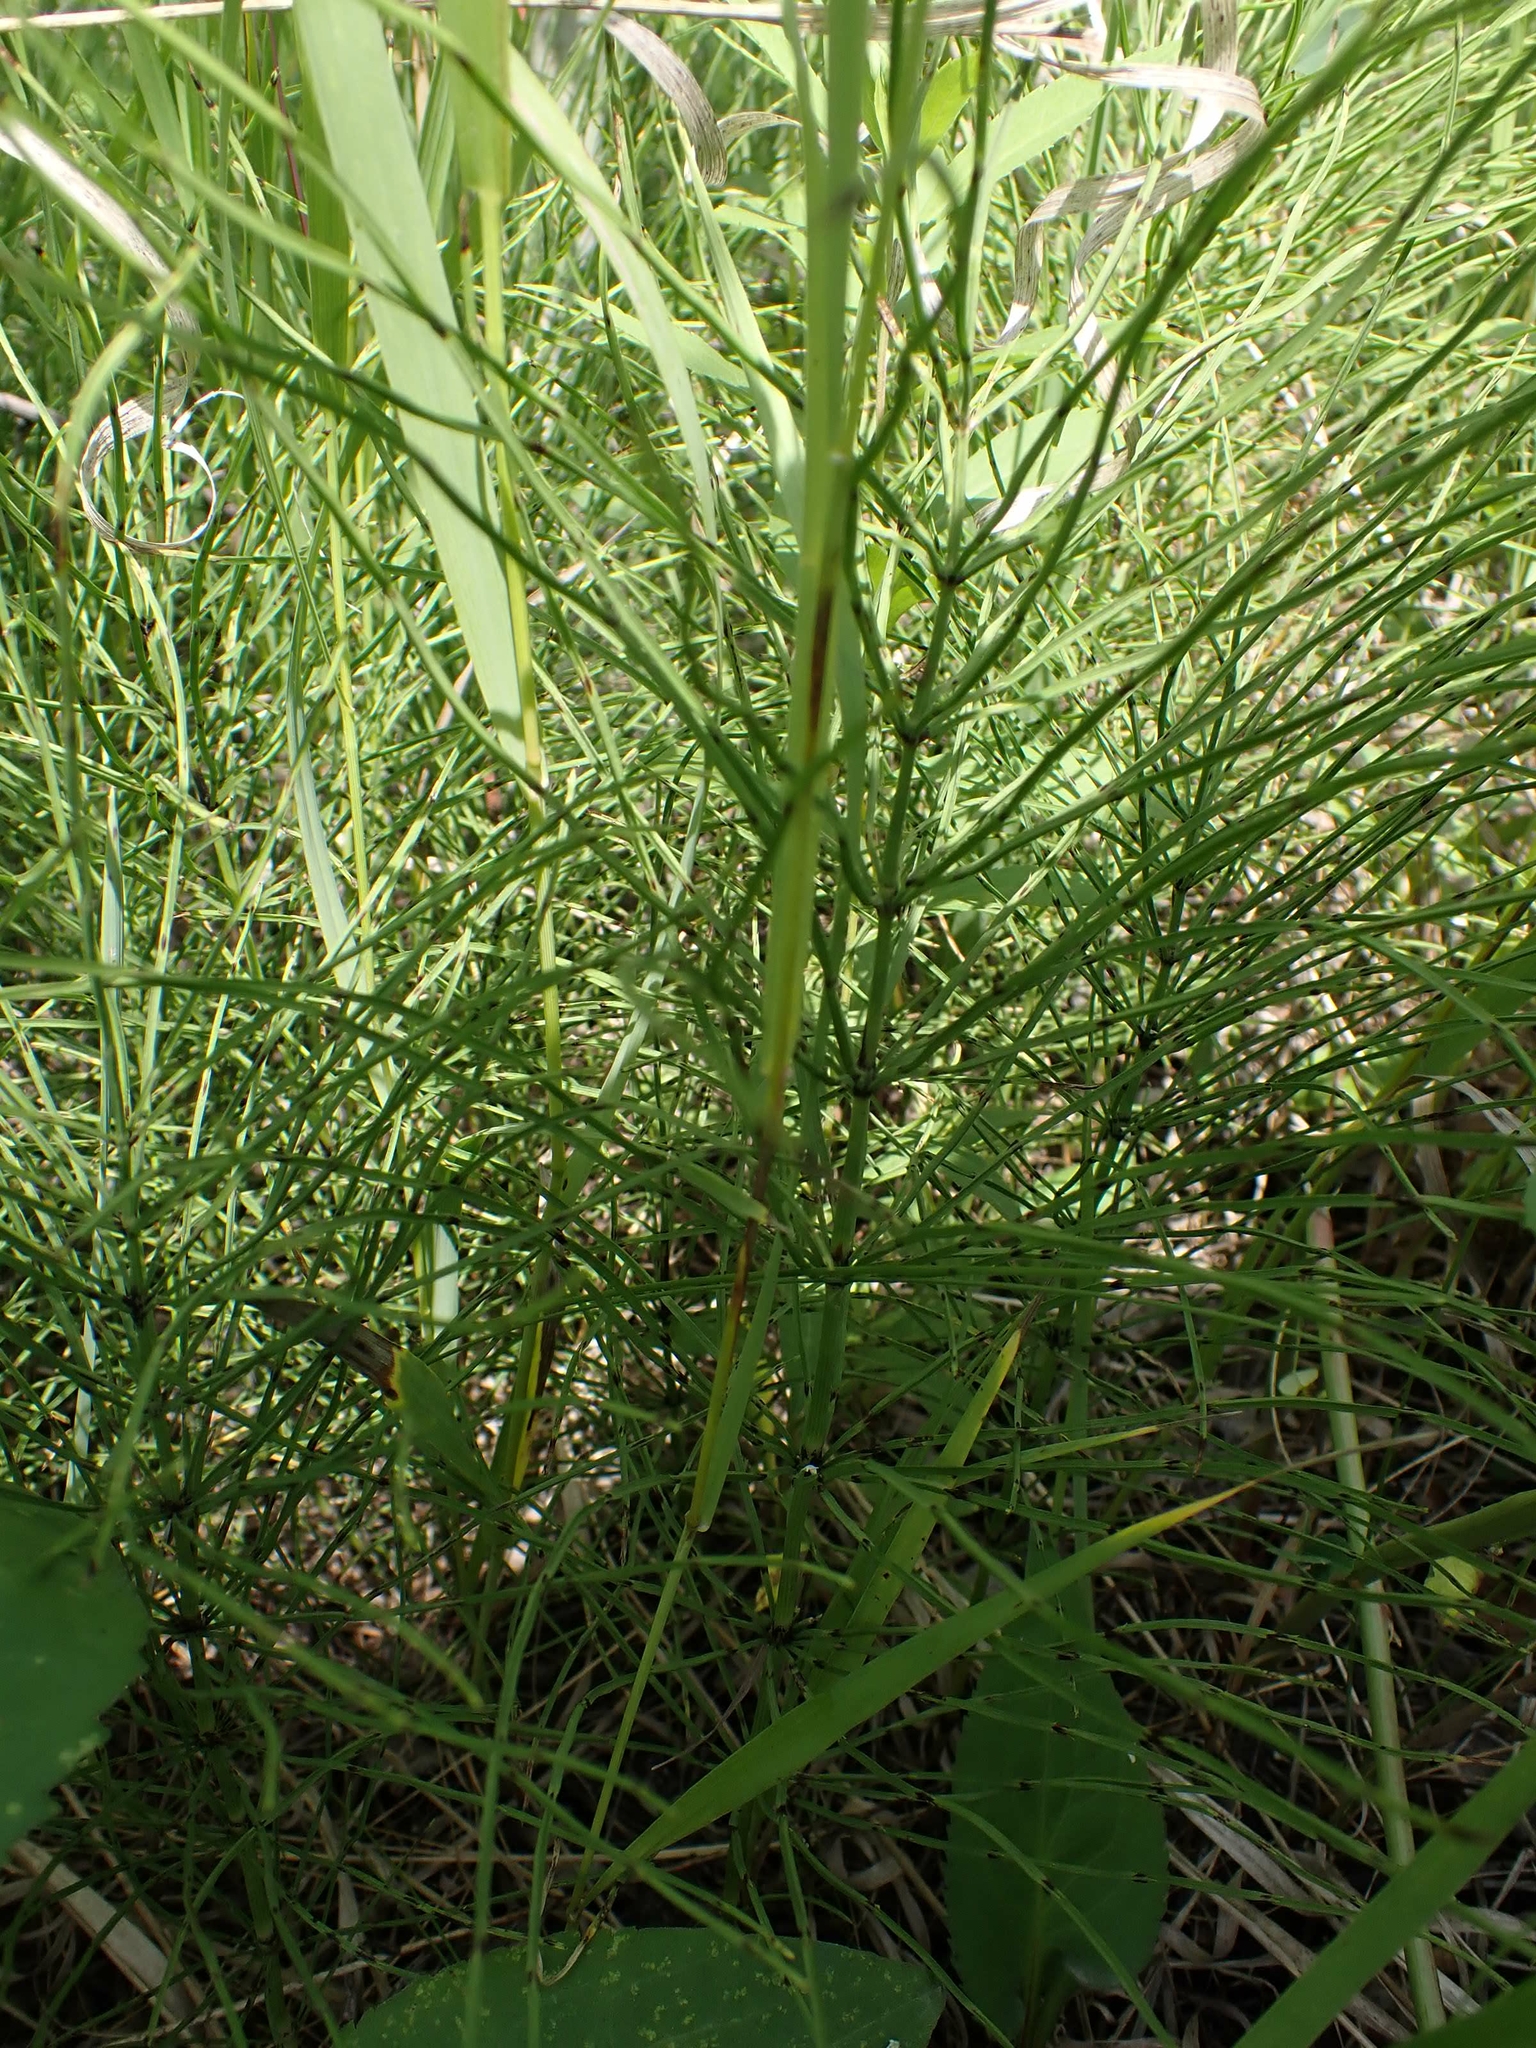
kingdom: Plantae
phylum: Tracheophyta
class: Polypodiopsida
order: Equisetales
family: Equisetaceae
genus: Equisetum
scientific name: Equisetum arvense
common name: Field horsetail
